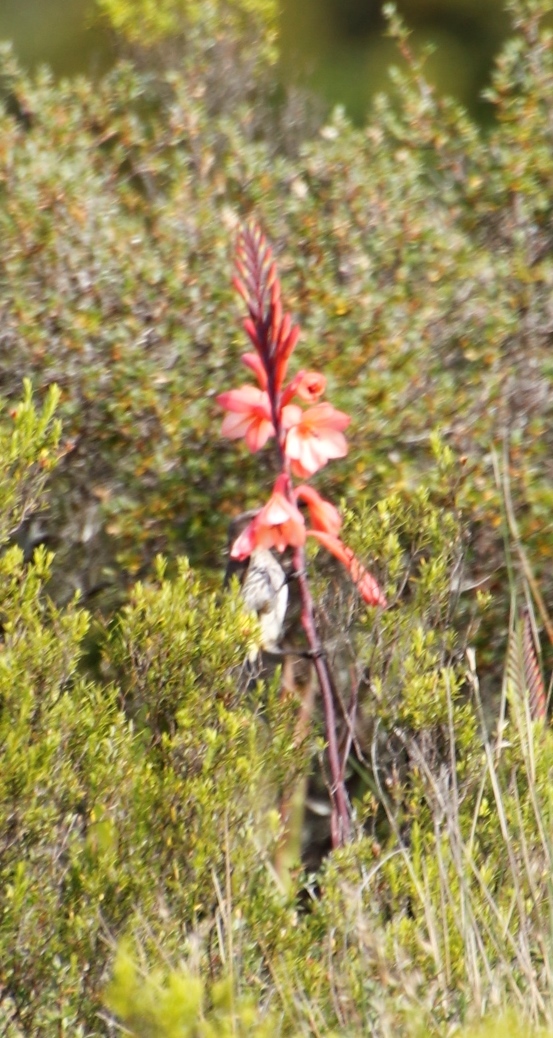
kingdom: Animalia
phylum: Chordata
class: Aves
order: Passeriformes
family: Promeropidae
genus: Promerops
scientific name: Promerops cafer
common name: Cape sugarbird
